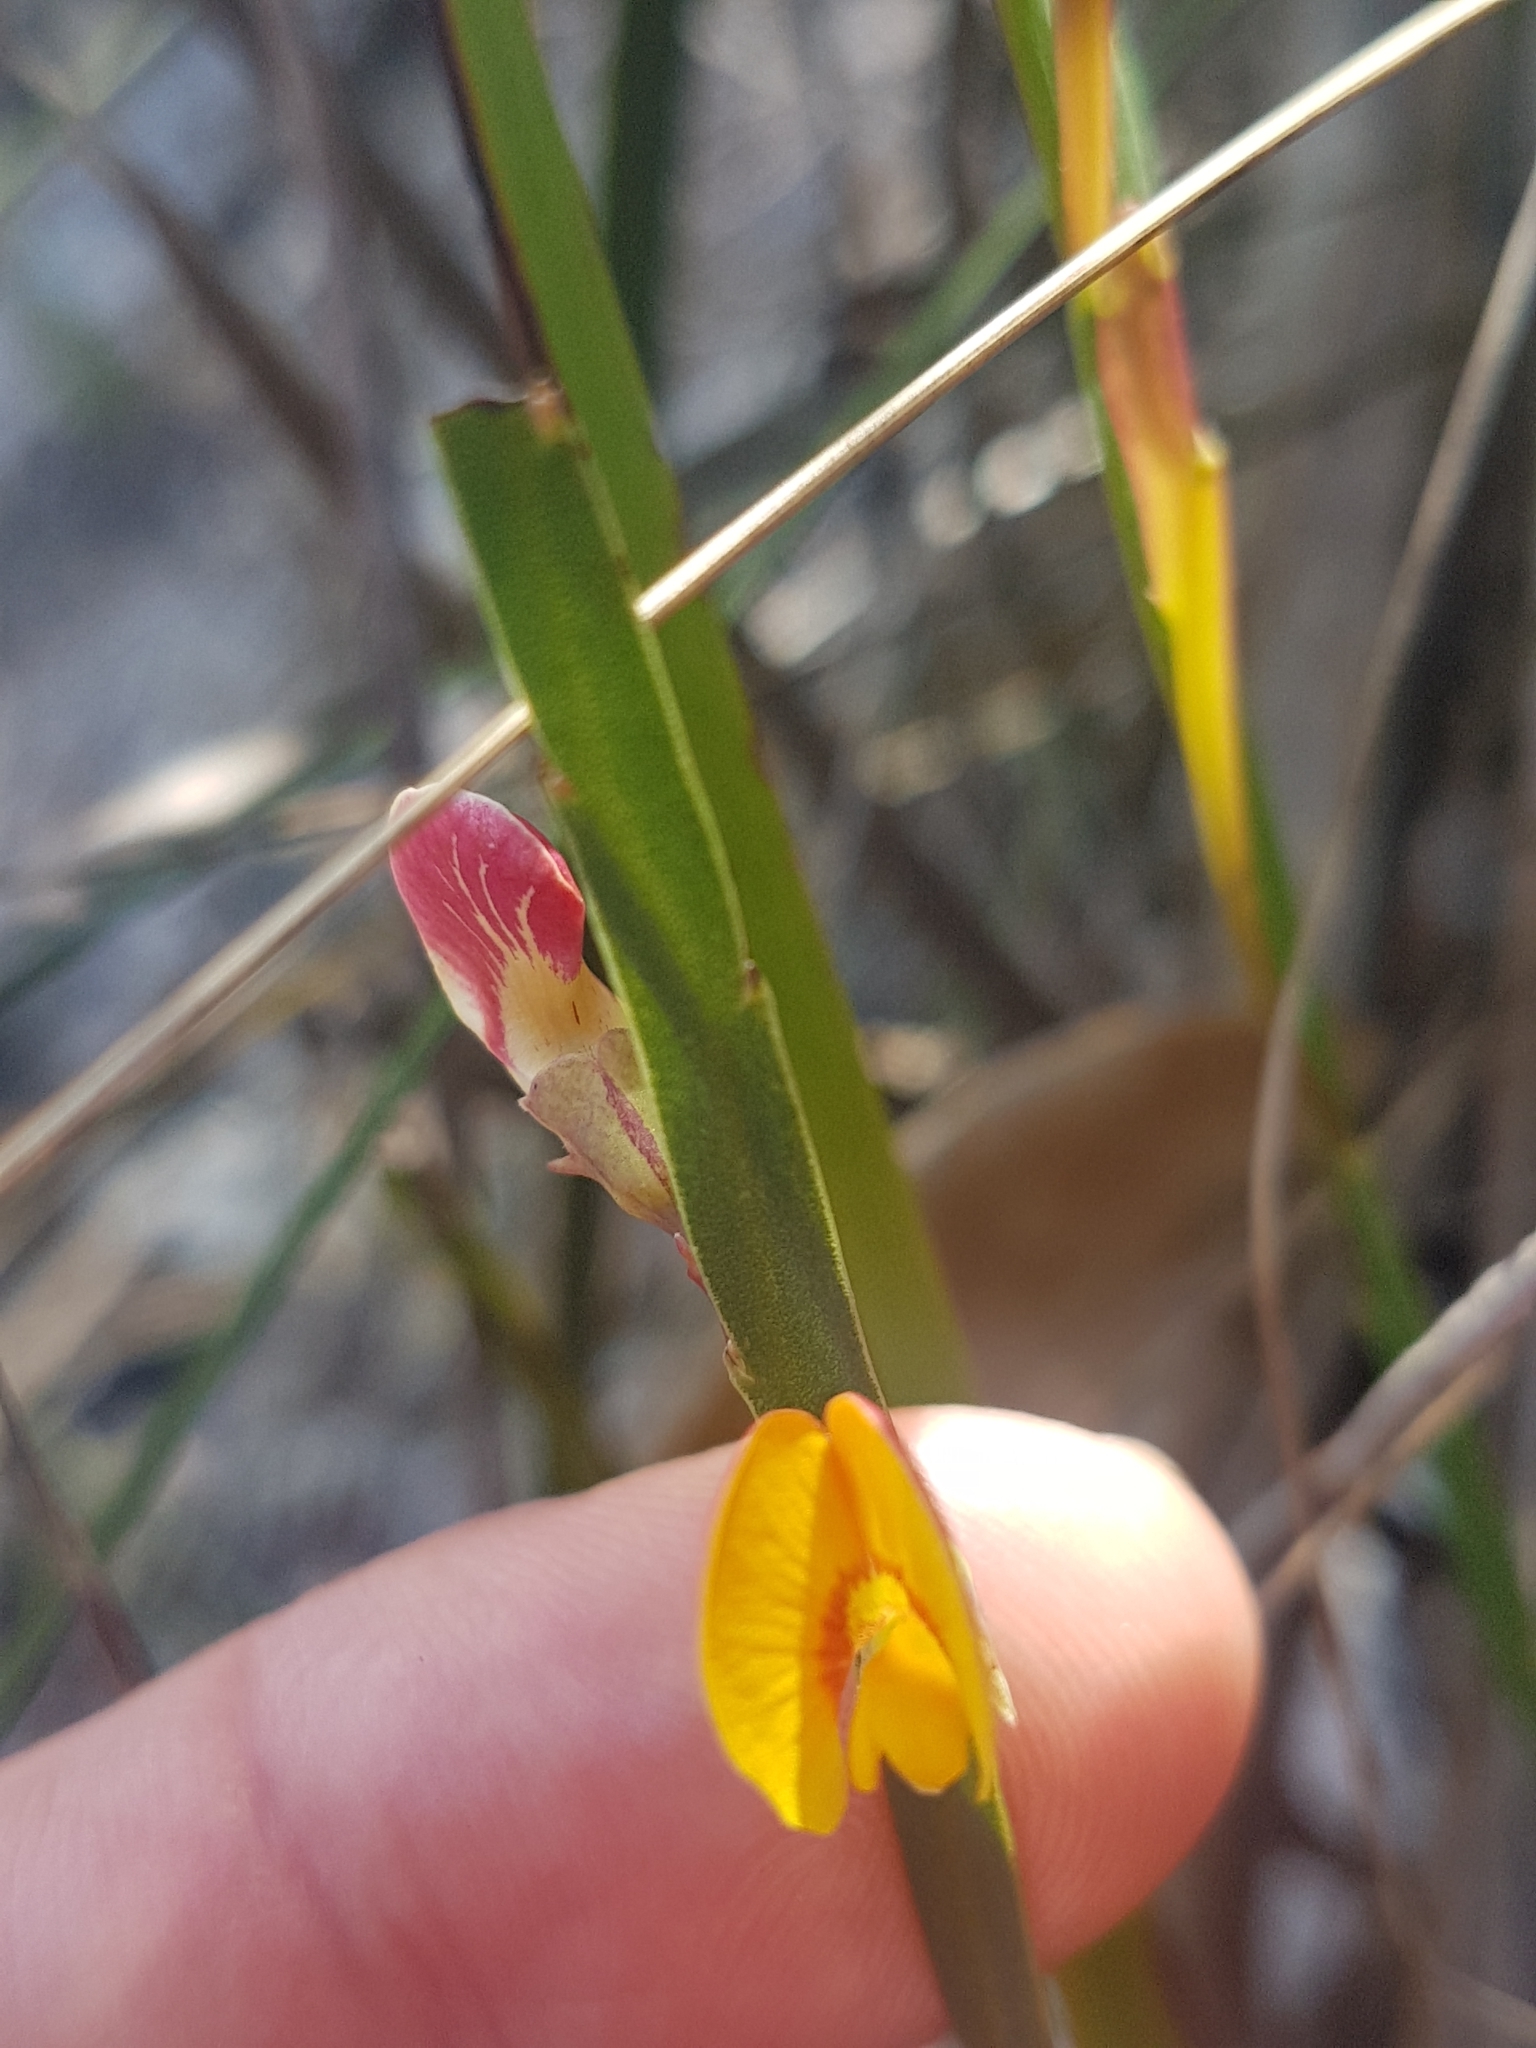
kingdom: Plantae
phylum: Tracheophyta
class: Magnoliopsida
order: Fabales
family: Fabaceae
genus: Bossiaea
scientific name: Bossiaea ensata
